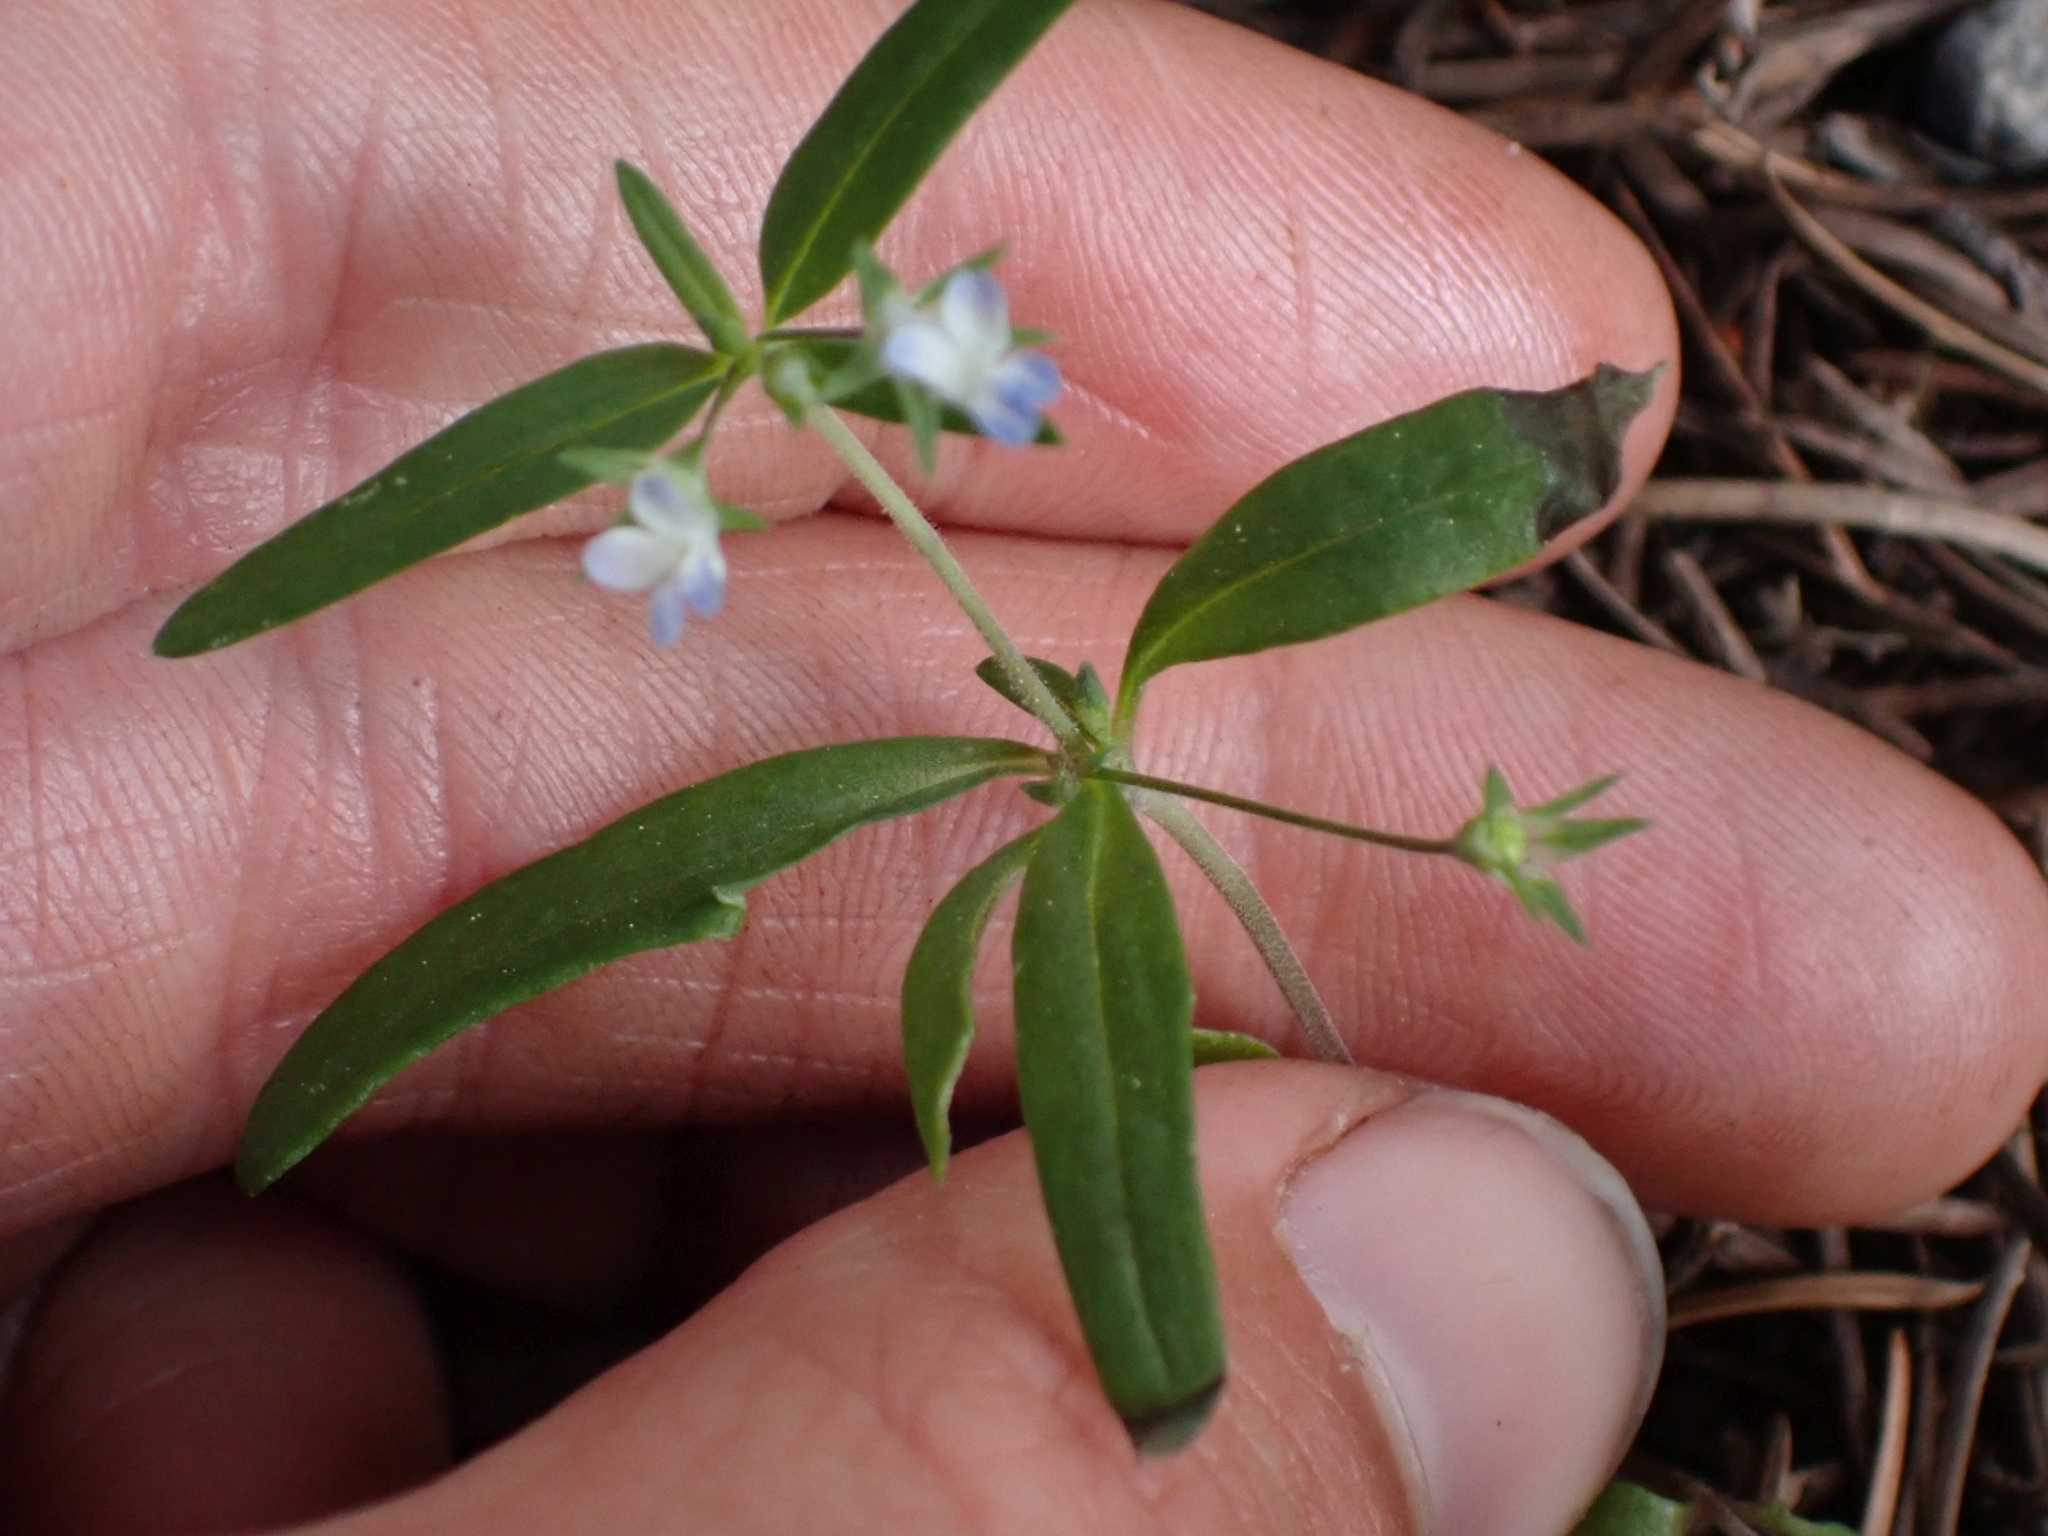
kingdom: Plantae
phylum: Tracheophyta
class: Magnoliopsida
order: Lamiales
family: Plantaginaceae
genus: Collinsia
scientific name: Collinsia parviflora
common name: Blue-lips
